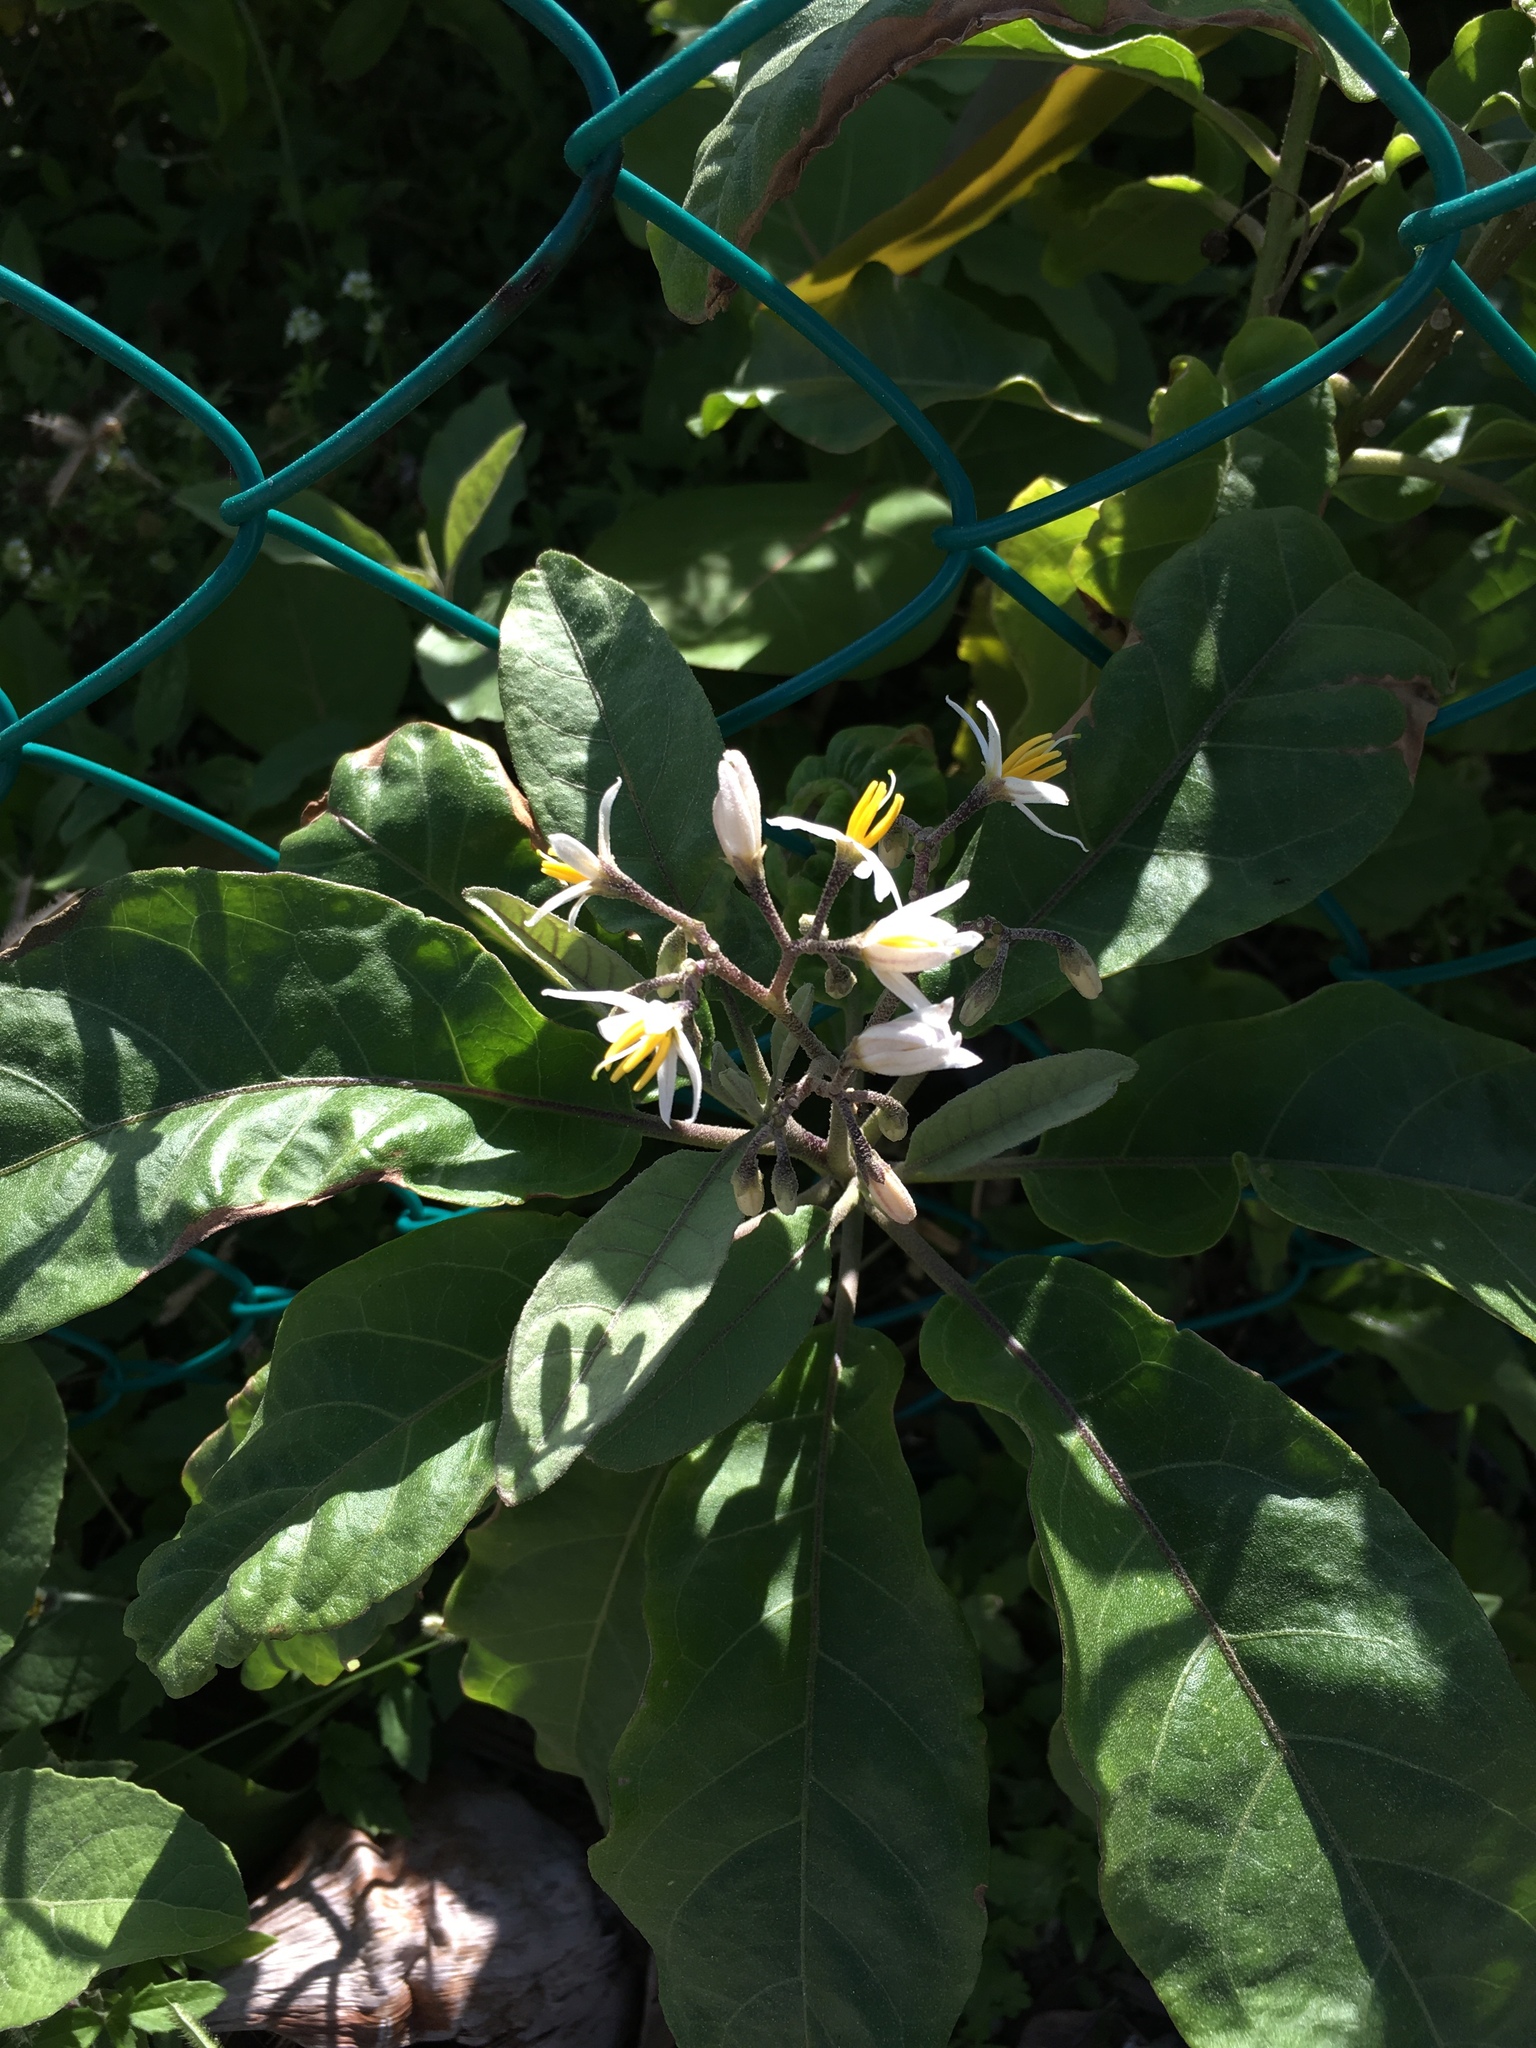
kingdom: Plantae
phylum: Tracheophyta
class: Magnoliopsida
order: Solanales
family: Solanaceae
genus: Solanum
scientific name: Solanum donianum
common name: Mullein nightshade
